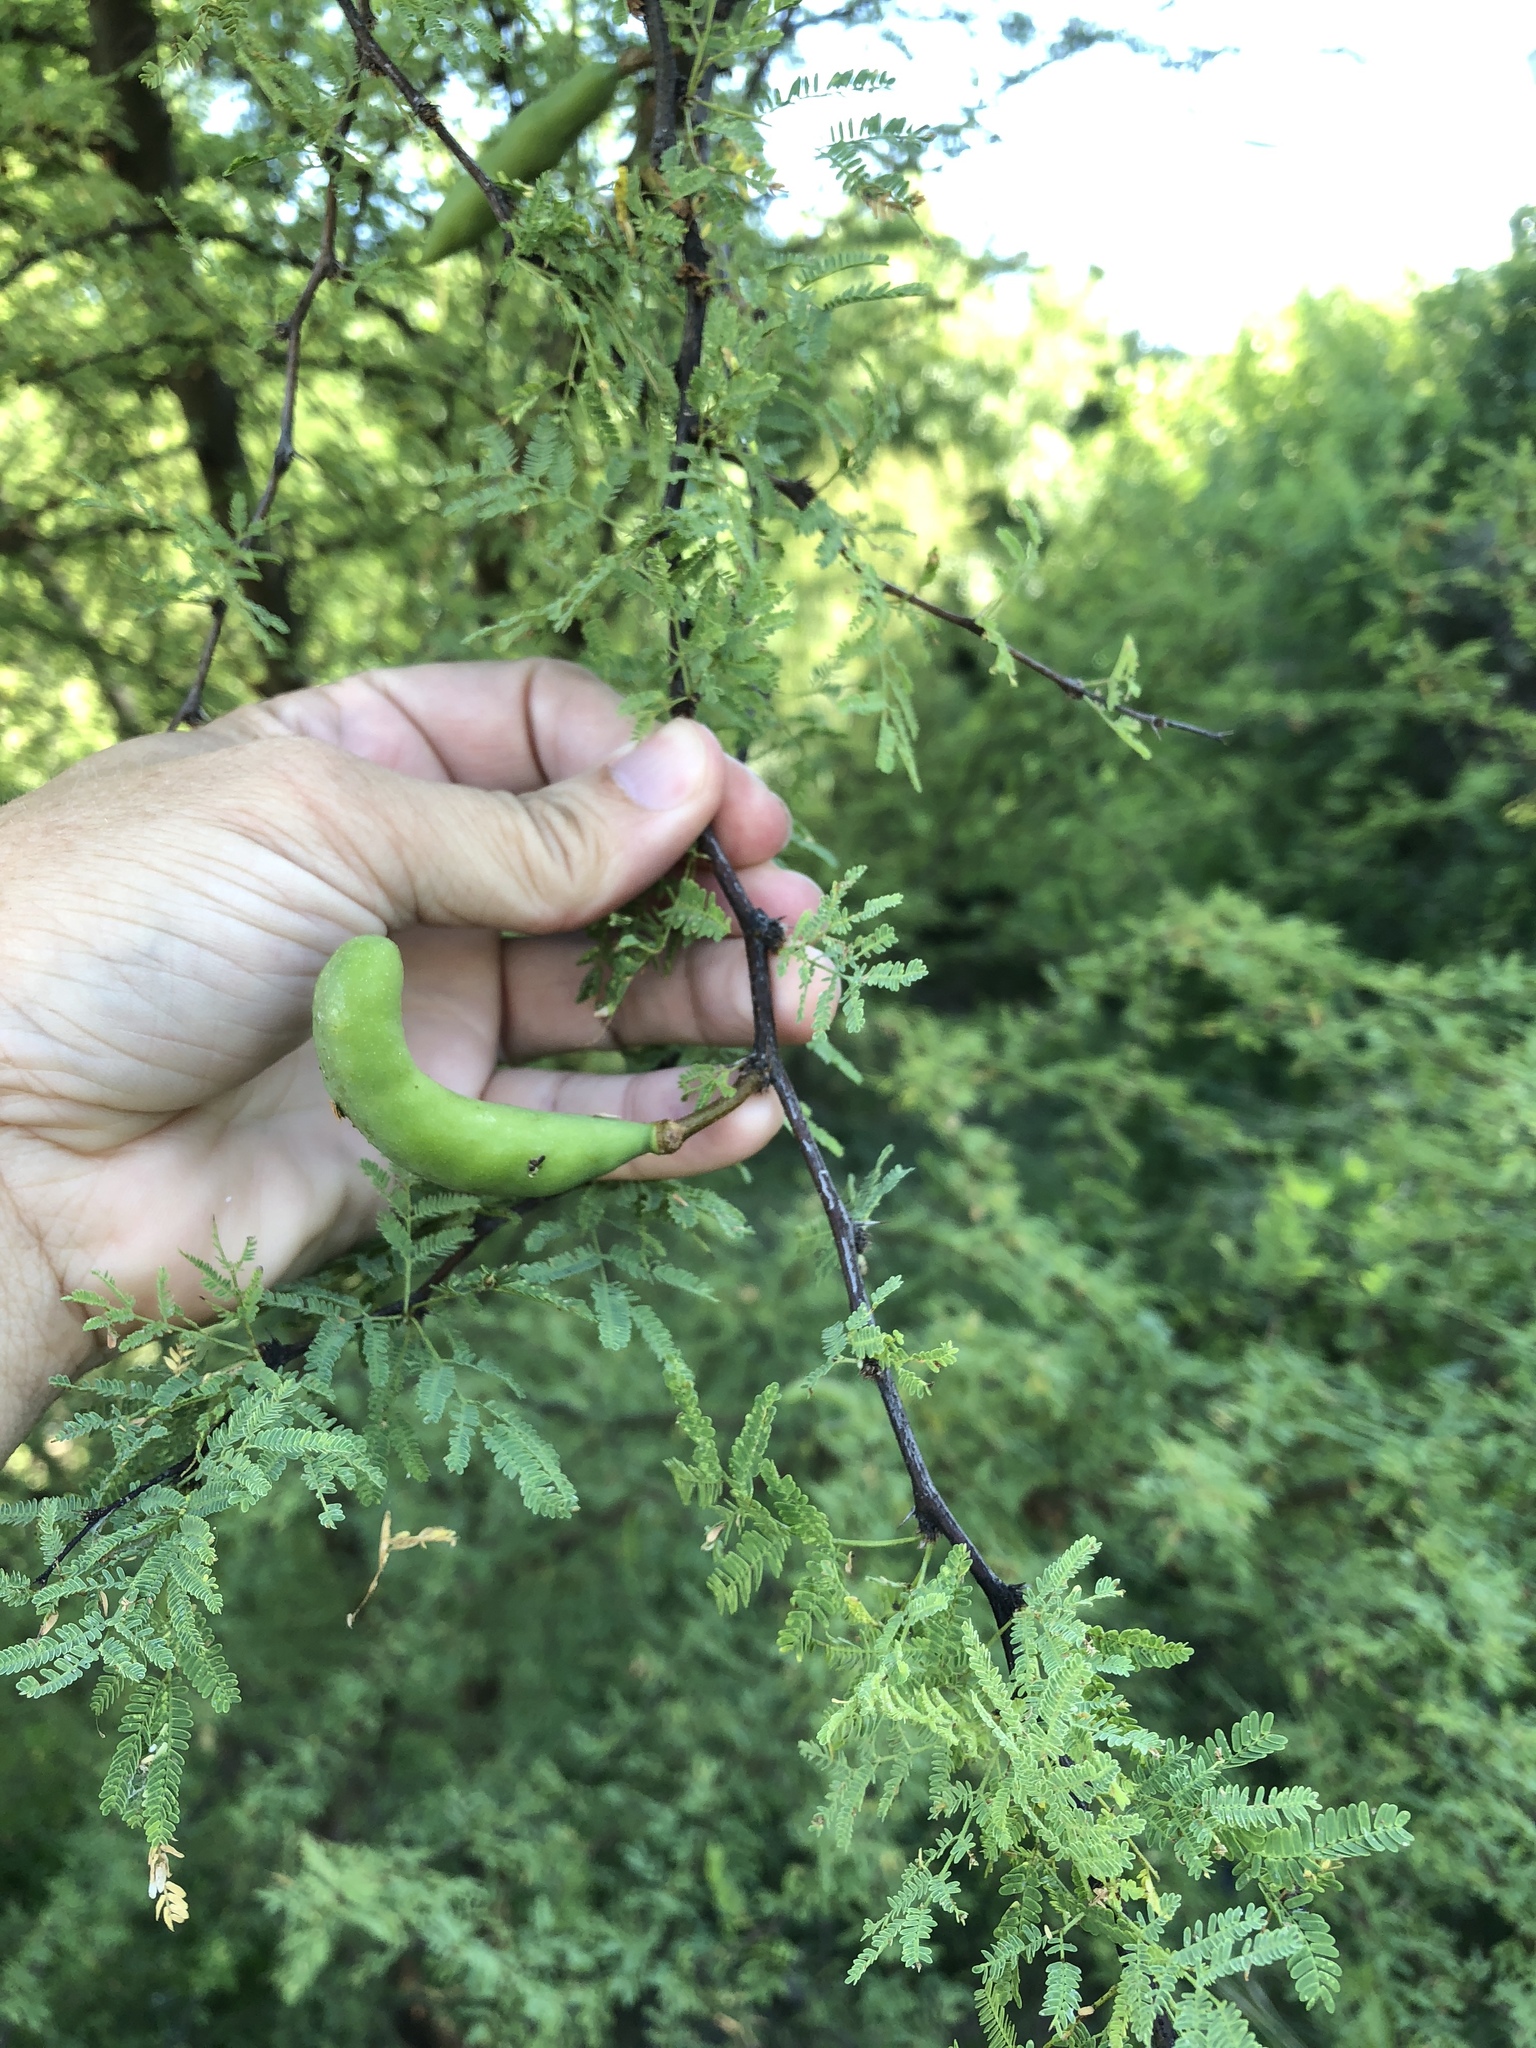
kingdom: Plantae
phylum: Tracheophyta
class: Magnoliopsida
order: Fabales
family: Fabaceae
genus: Vachellia
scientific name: Vachellia farnesiana
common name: Sweet acacia
